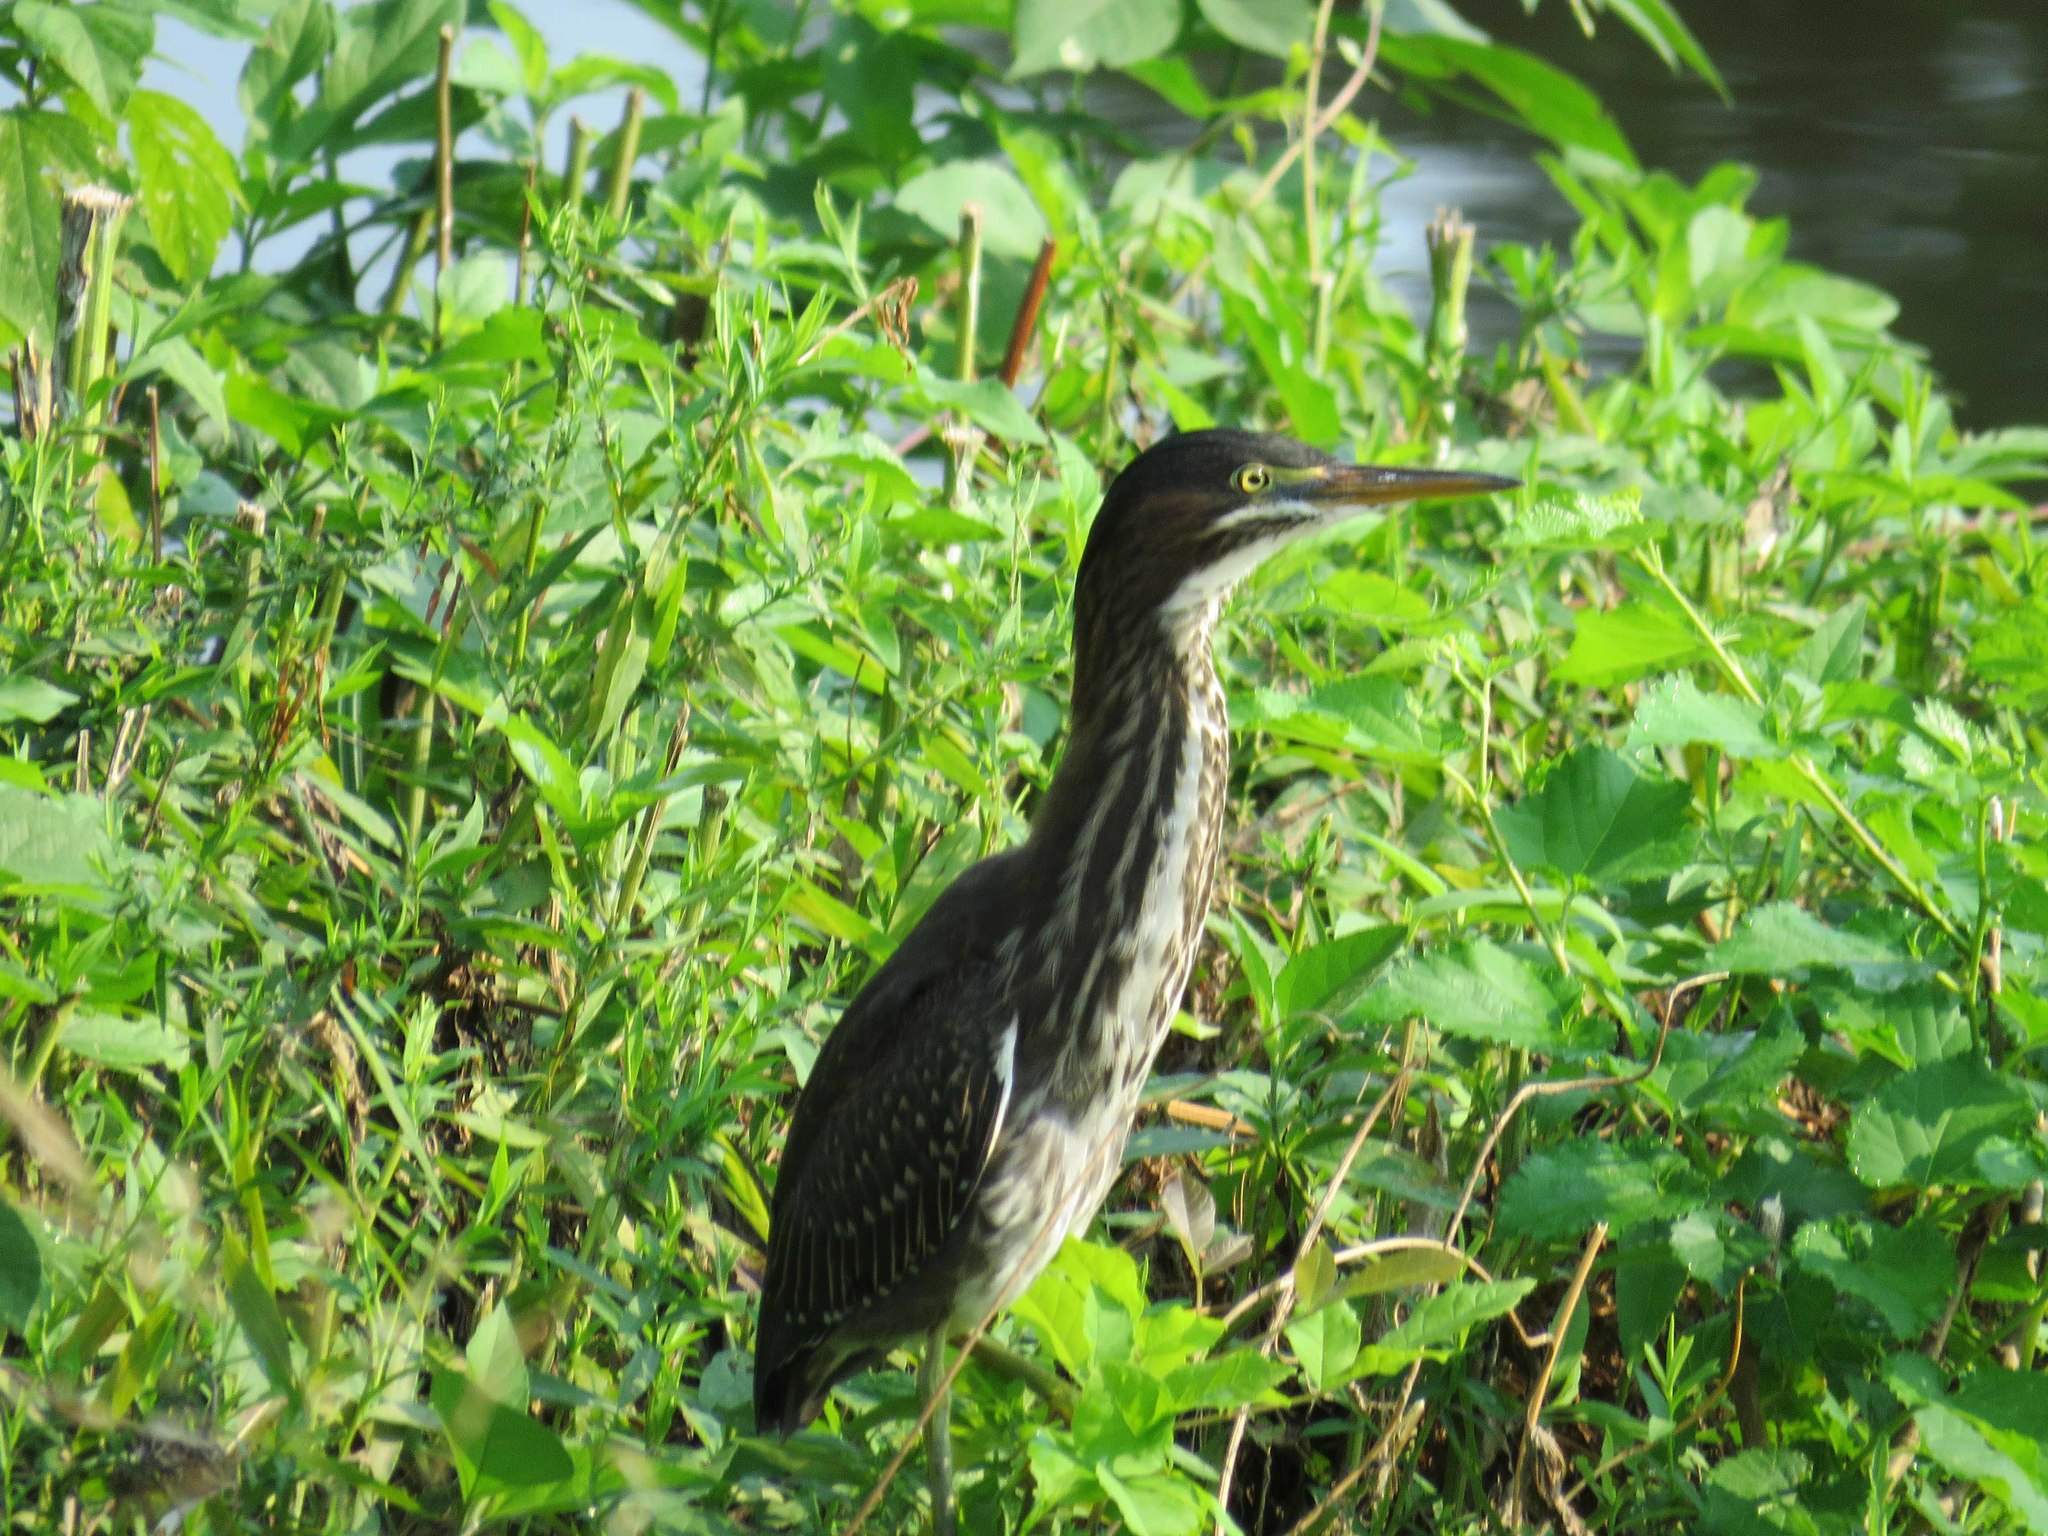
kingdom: Animalia
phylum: Chordata
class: Aves
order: Pelecaniformes
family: Ardeidae
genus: Butorides
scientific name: Butorides virescens
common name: Green heron
